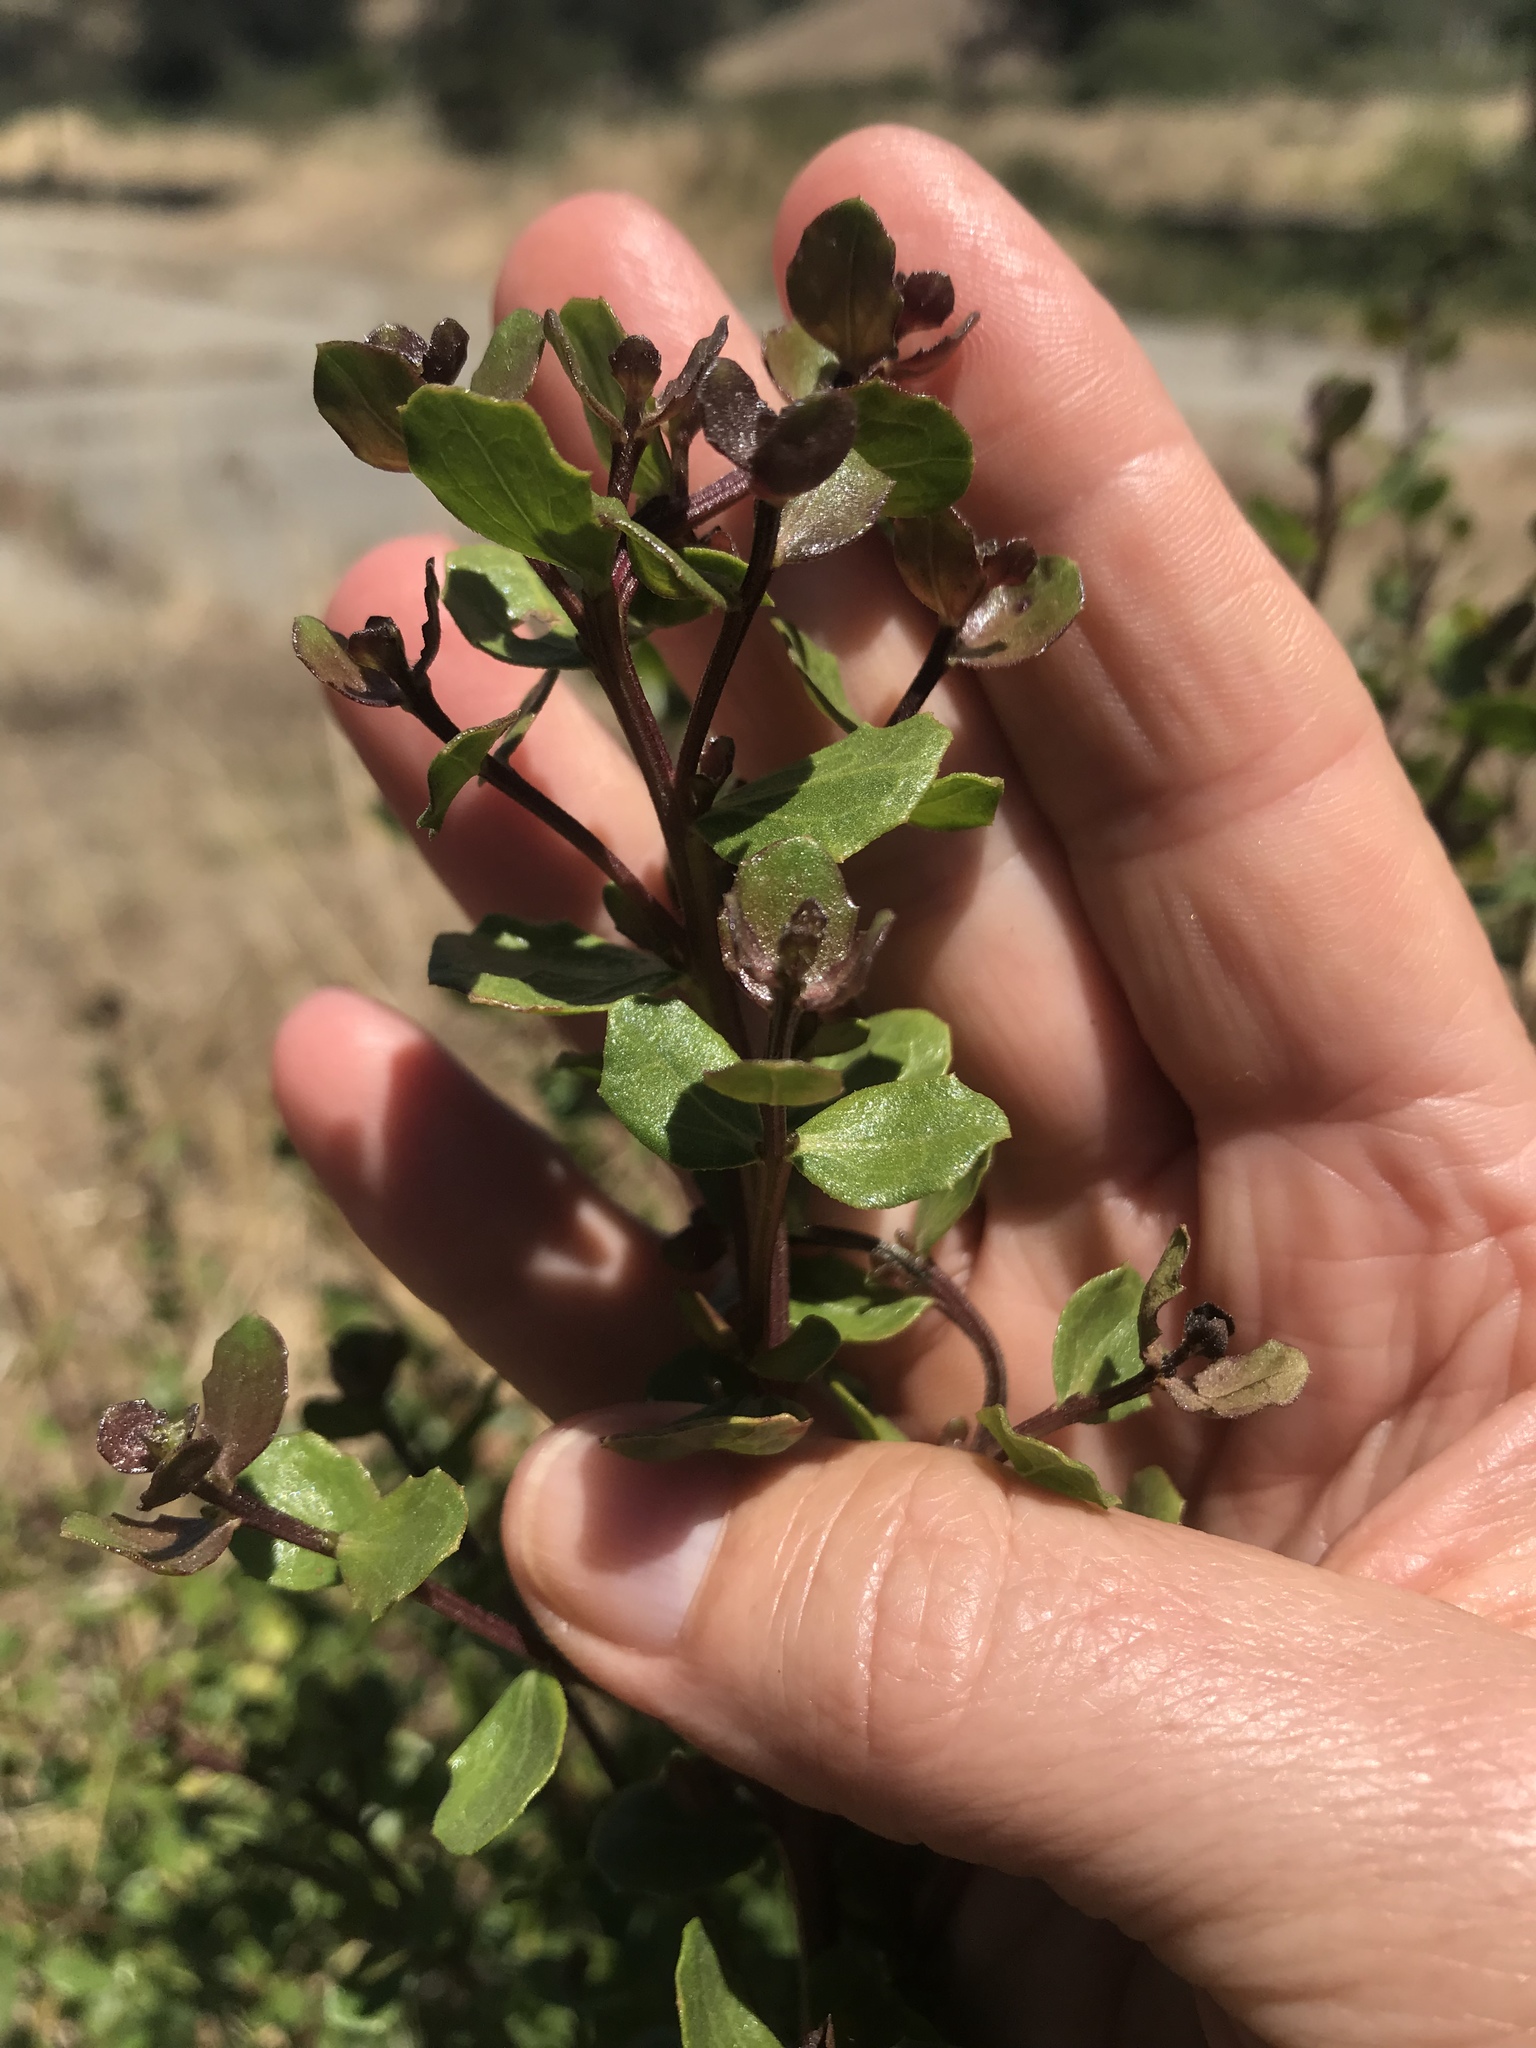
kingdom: Plantae
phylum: Tracheophyta
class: Magnoliopsida
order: Asterales
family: Asteraceae
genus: Baccharis
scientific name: Baccharis pilularis
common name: Coyotebrush
